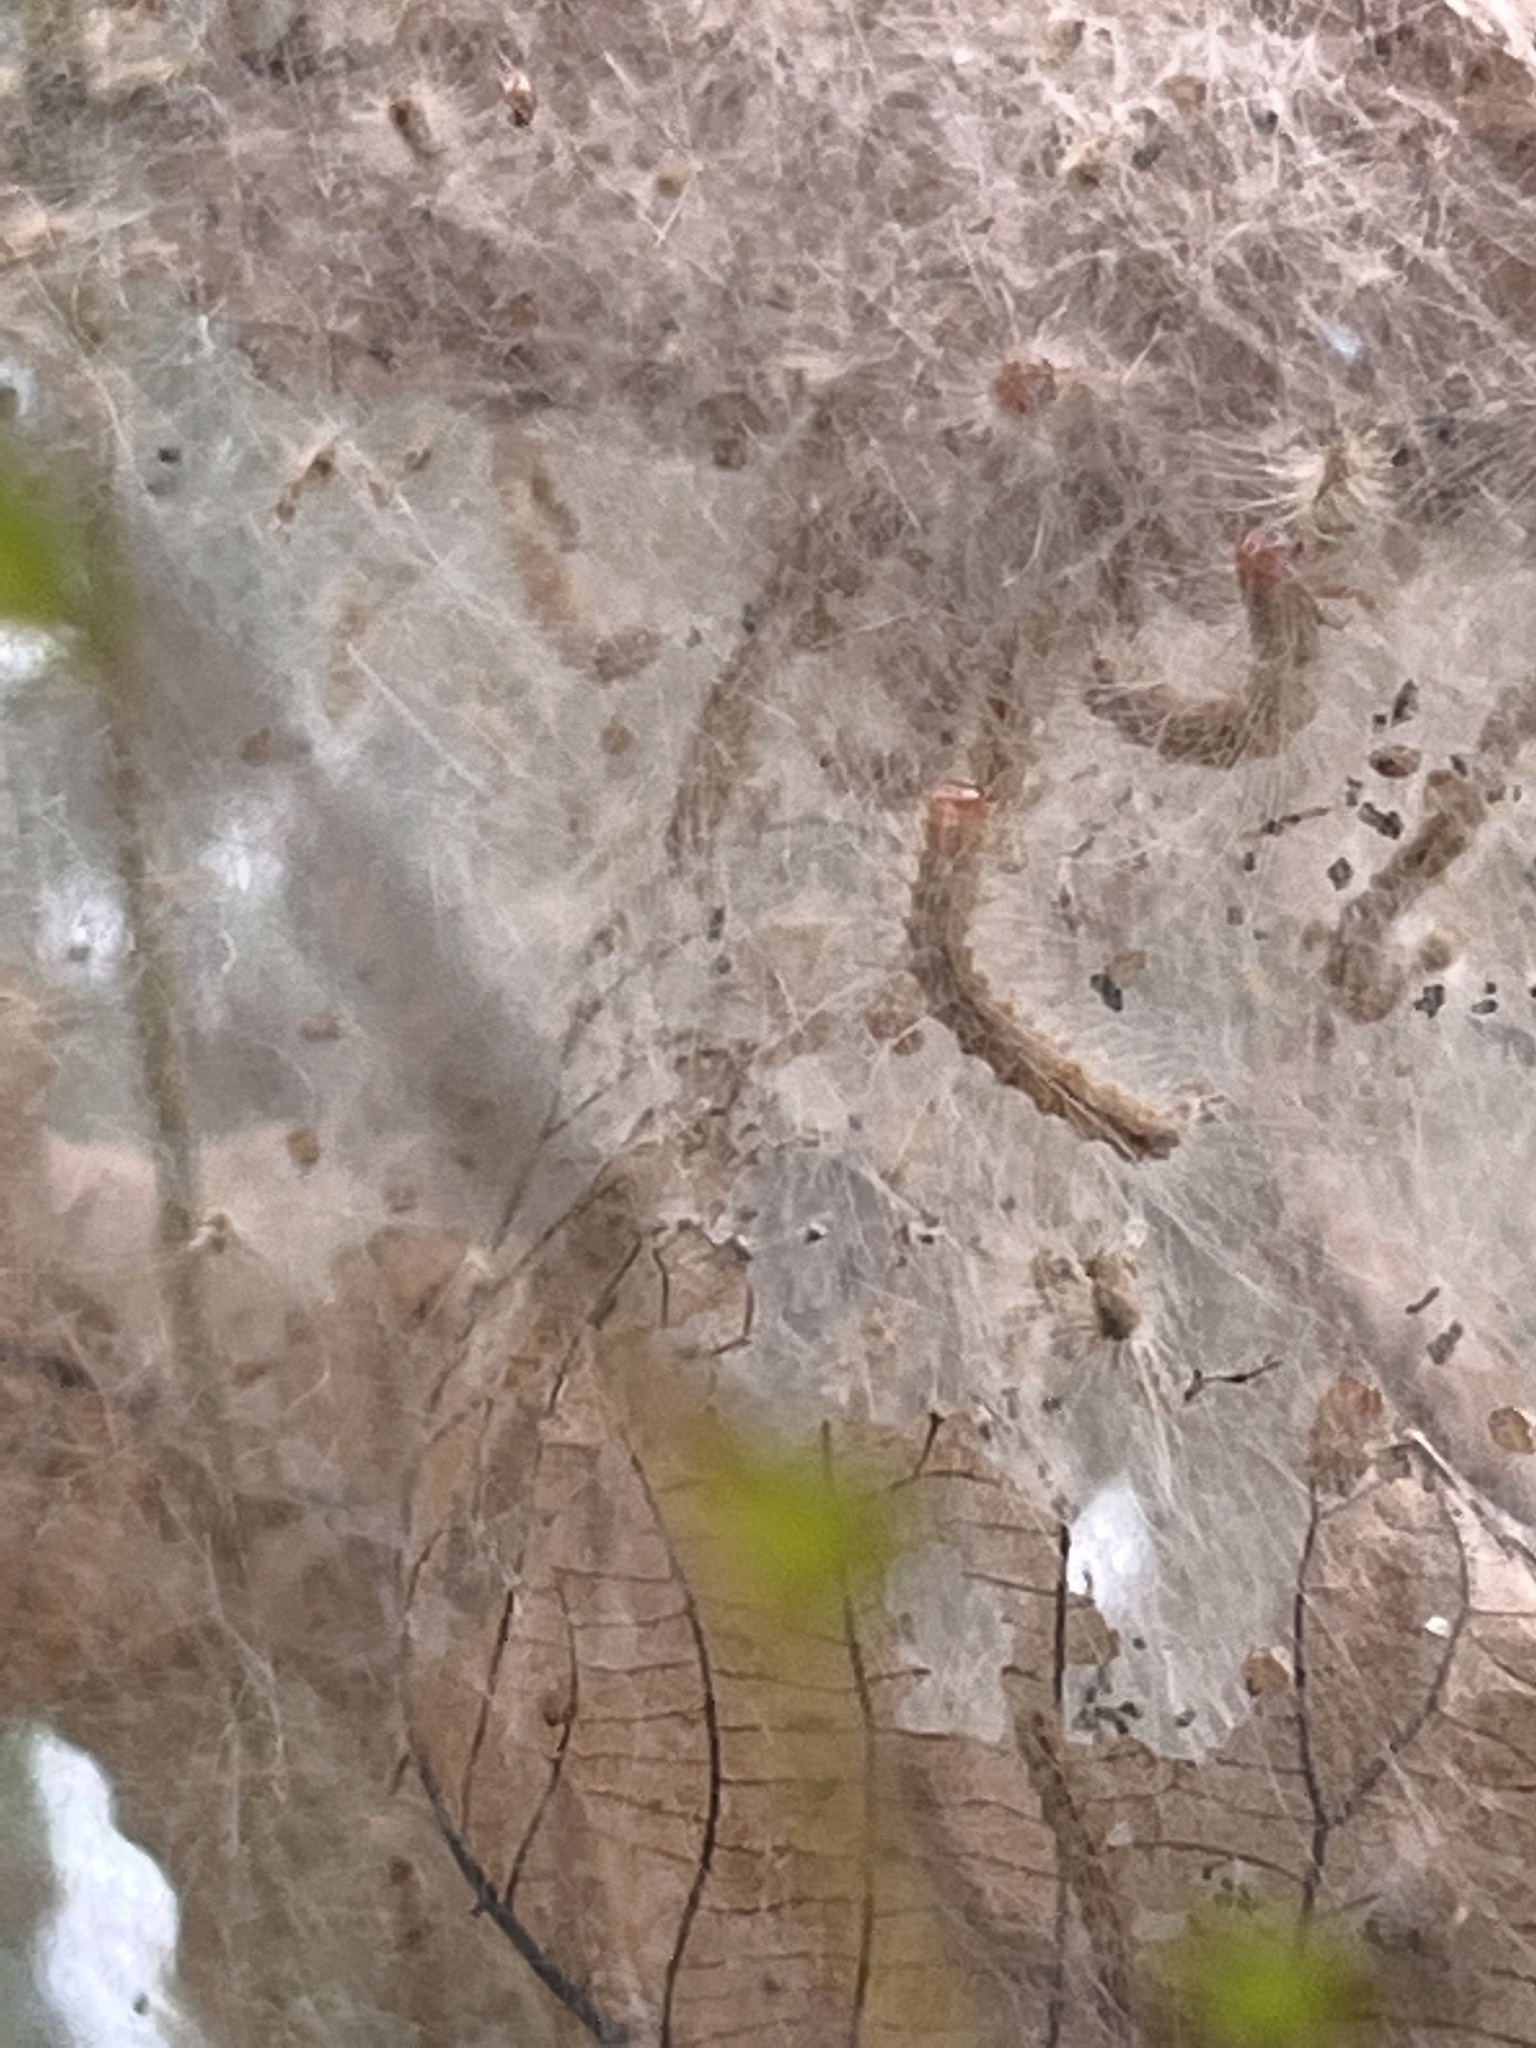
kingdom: Animalia
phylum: Arthropoda
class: Insecta
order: Lepidoptera
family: Erebidae
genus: Hyphantria
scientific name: Hyphantria cunea
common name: American white moth
